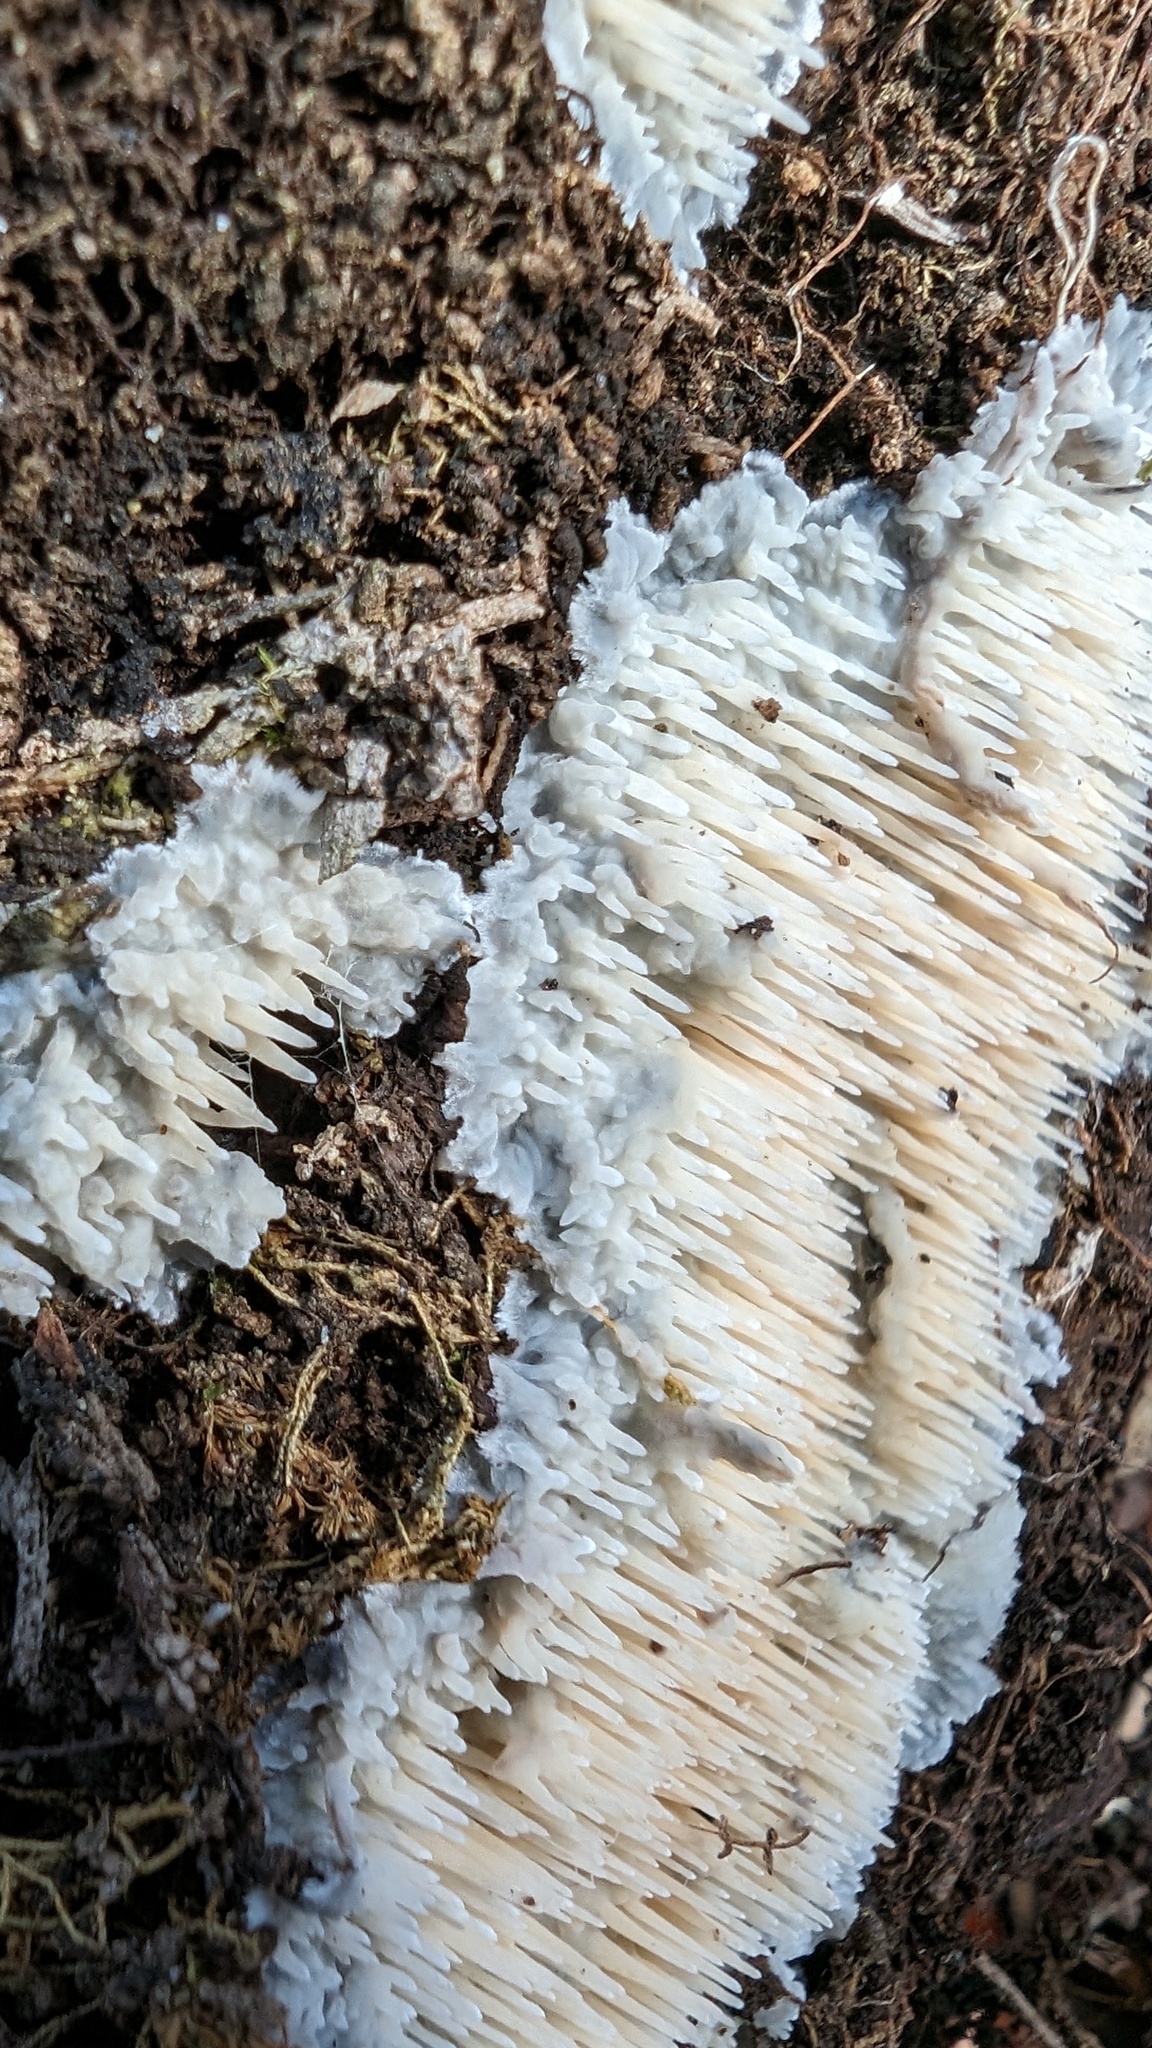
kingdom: Fungi
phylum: Basidiomycota
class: Agaricomycetes
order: Agaricales
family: Radulomycetaceae
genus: Radulomyces
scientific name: Radulomyces copelandii
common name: Asian beauty
